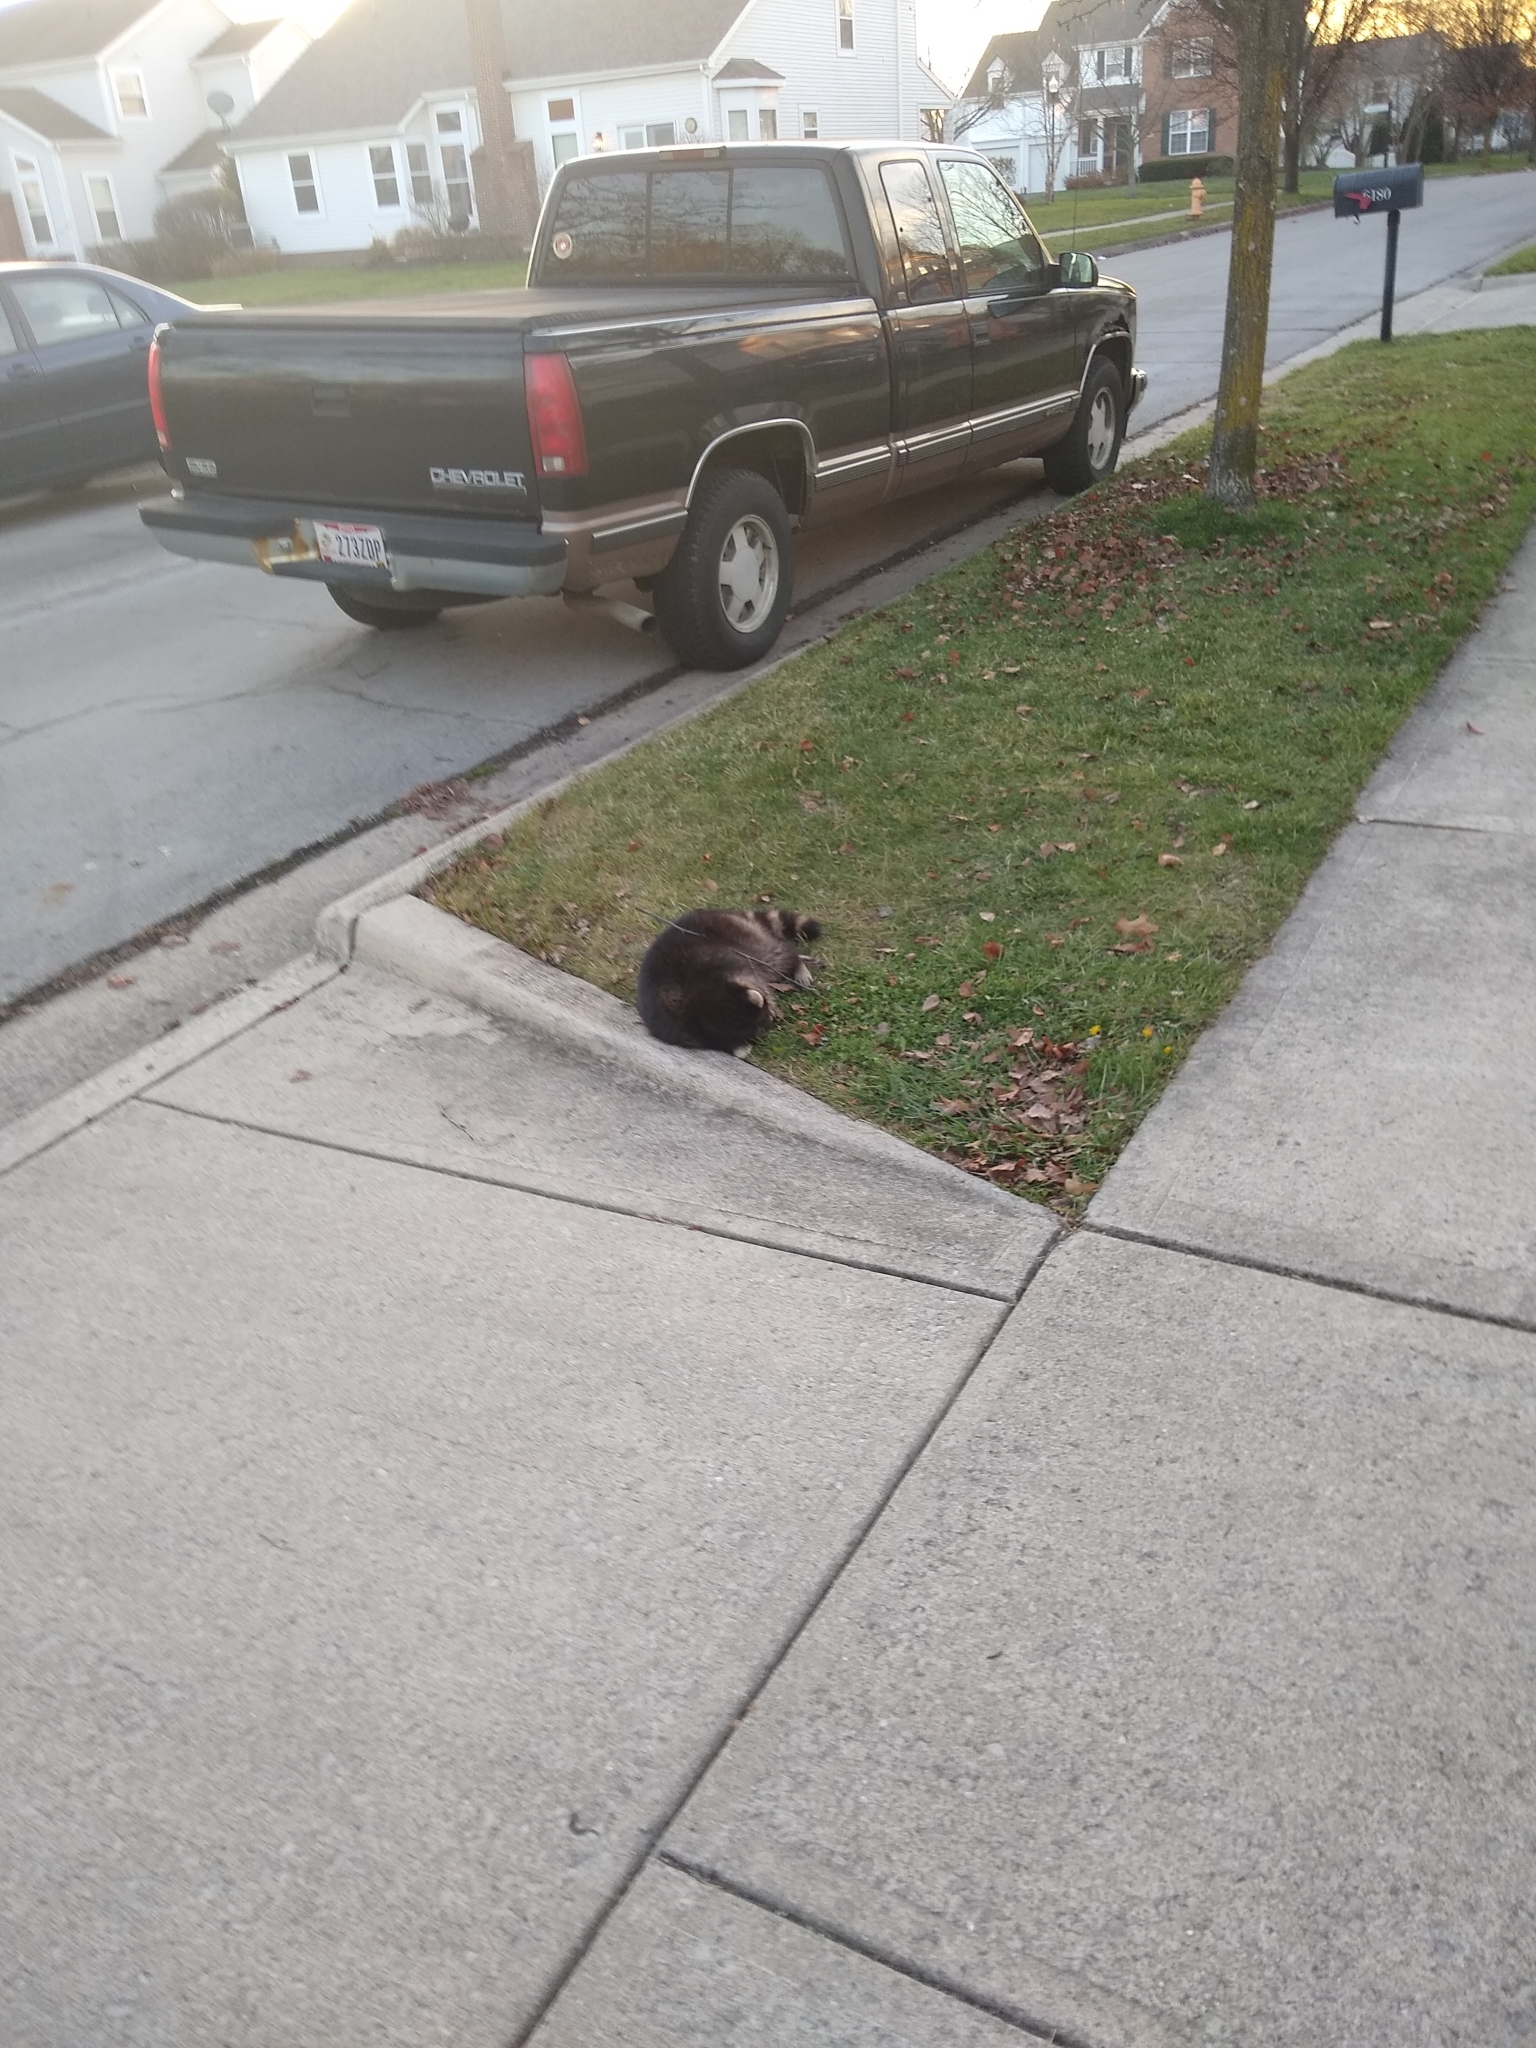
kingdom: Animalia
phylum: Chordata
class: Mammalia
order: Carnivora
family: Procyonidae
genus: Procyon
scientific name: Procyon lotor
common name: Raccoon
